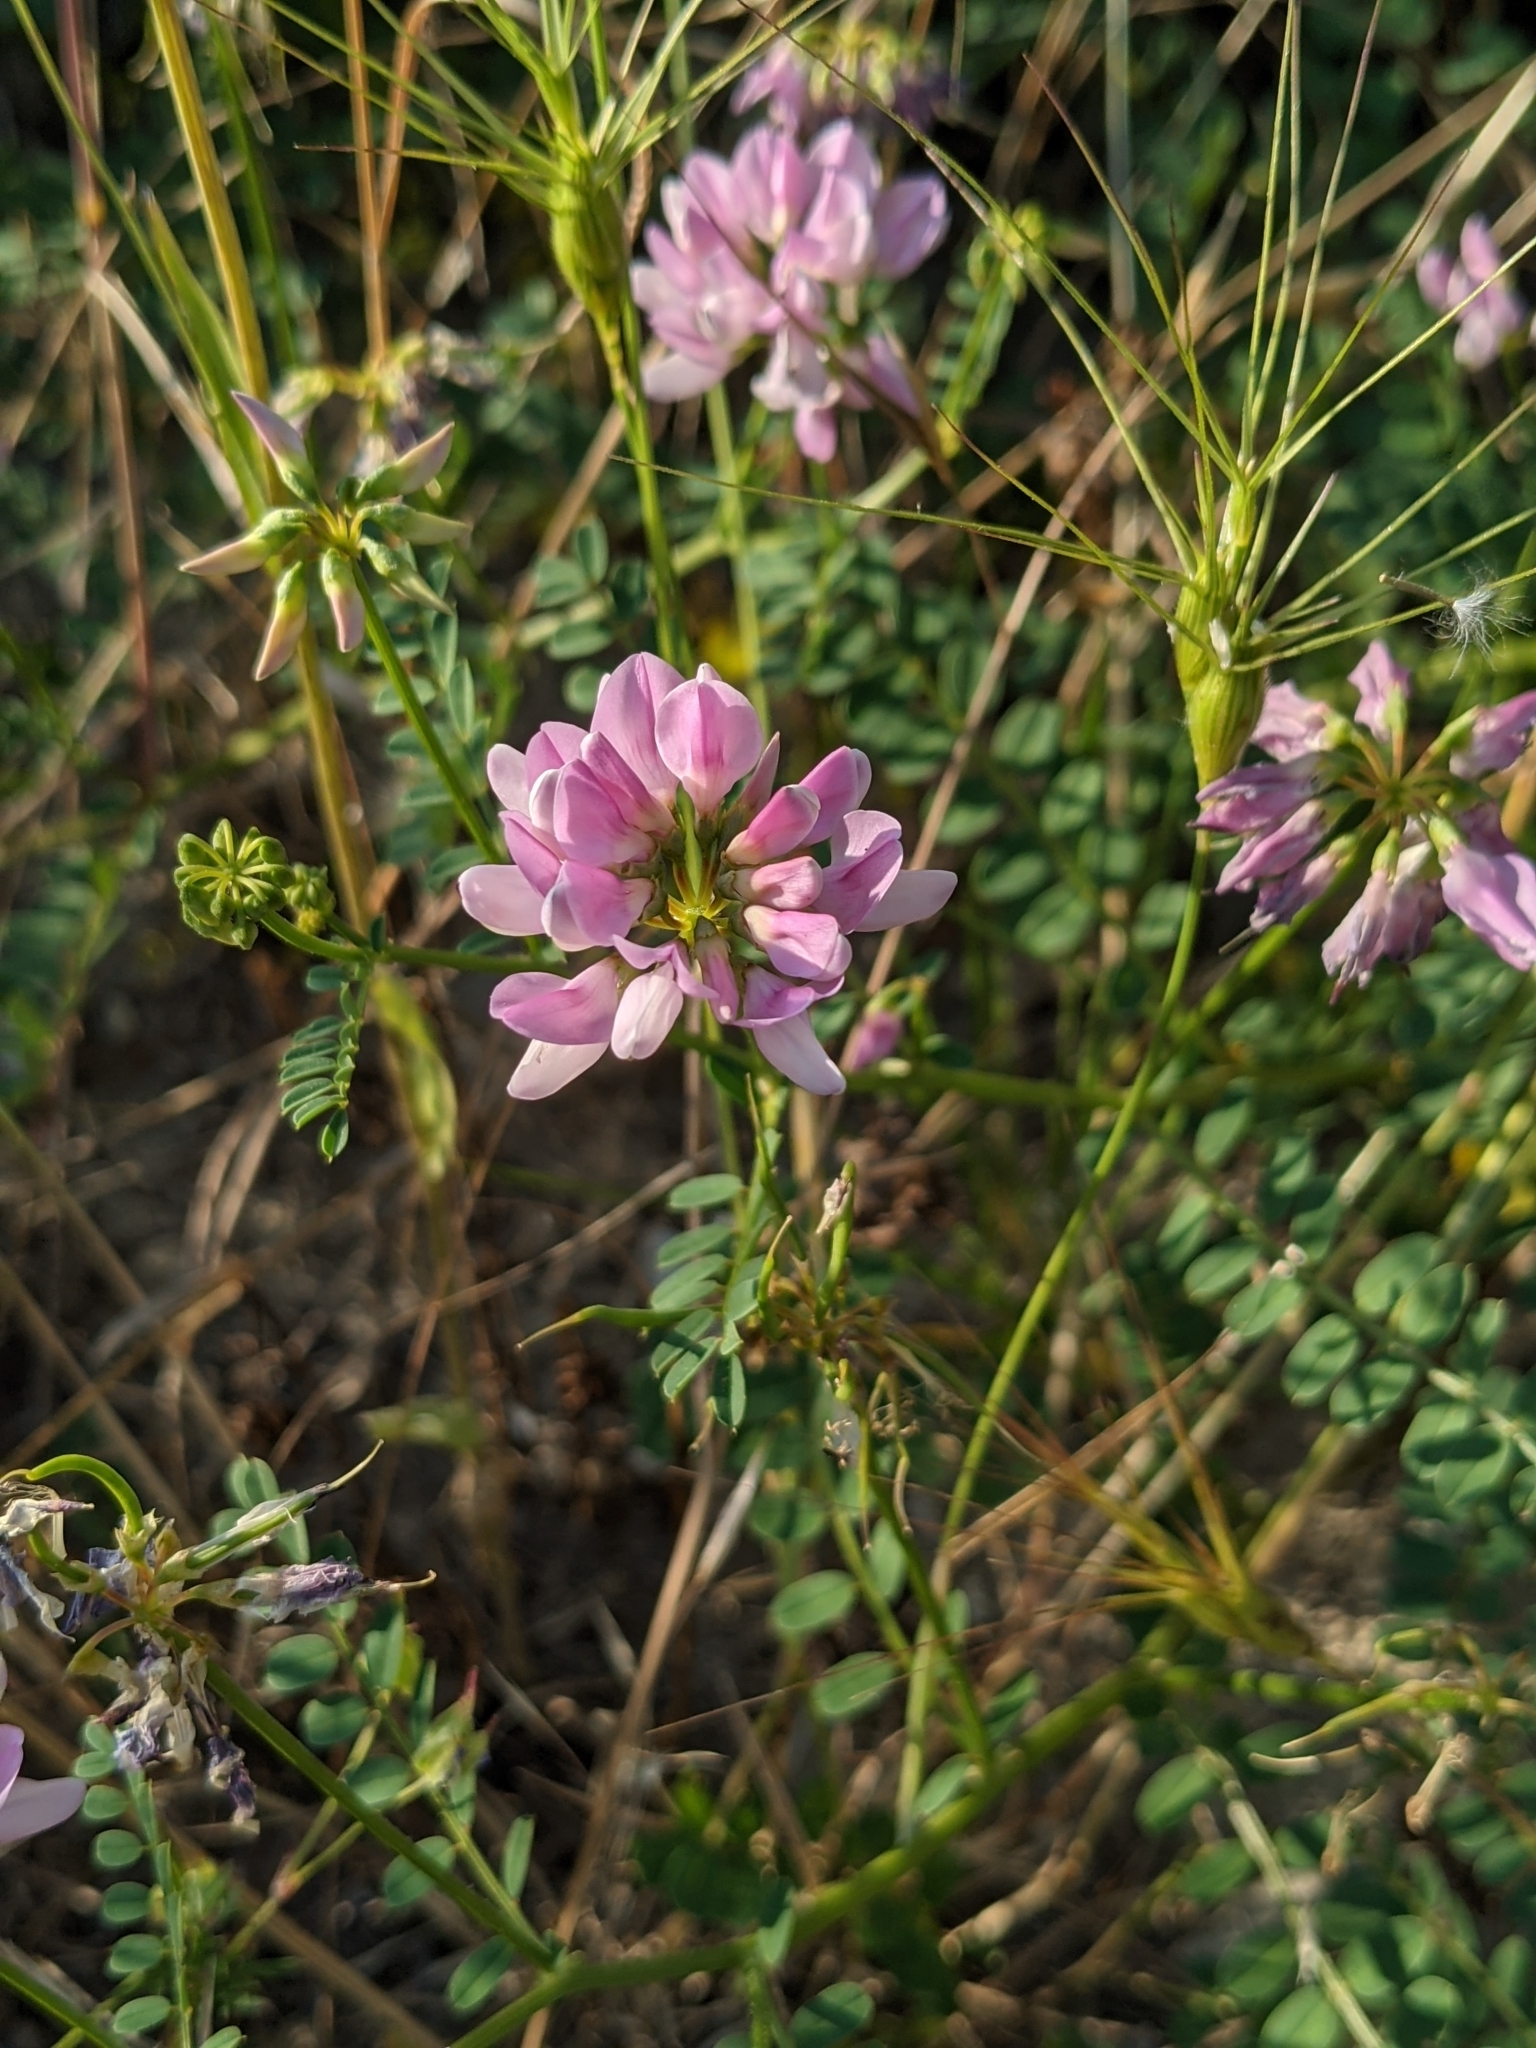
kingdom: Plantae
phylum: Tracheophyta
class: Magnoliopsida
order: Fabales
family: Fabaceae
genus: Coronilla
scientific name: Coronilla varia
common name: Crownvetch
